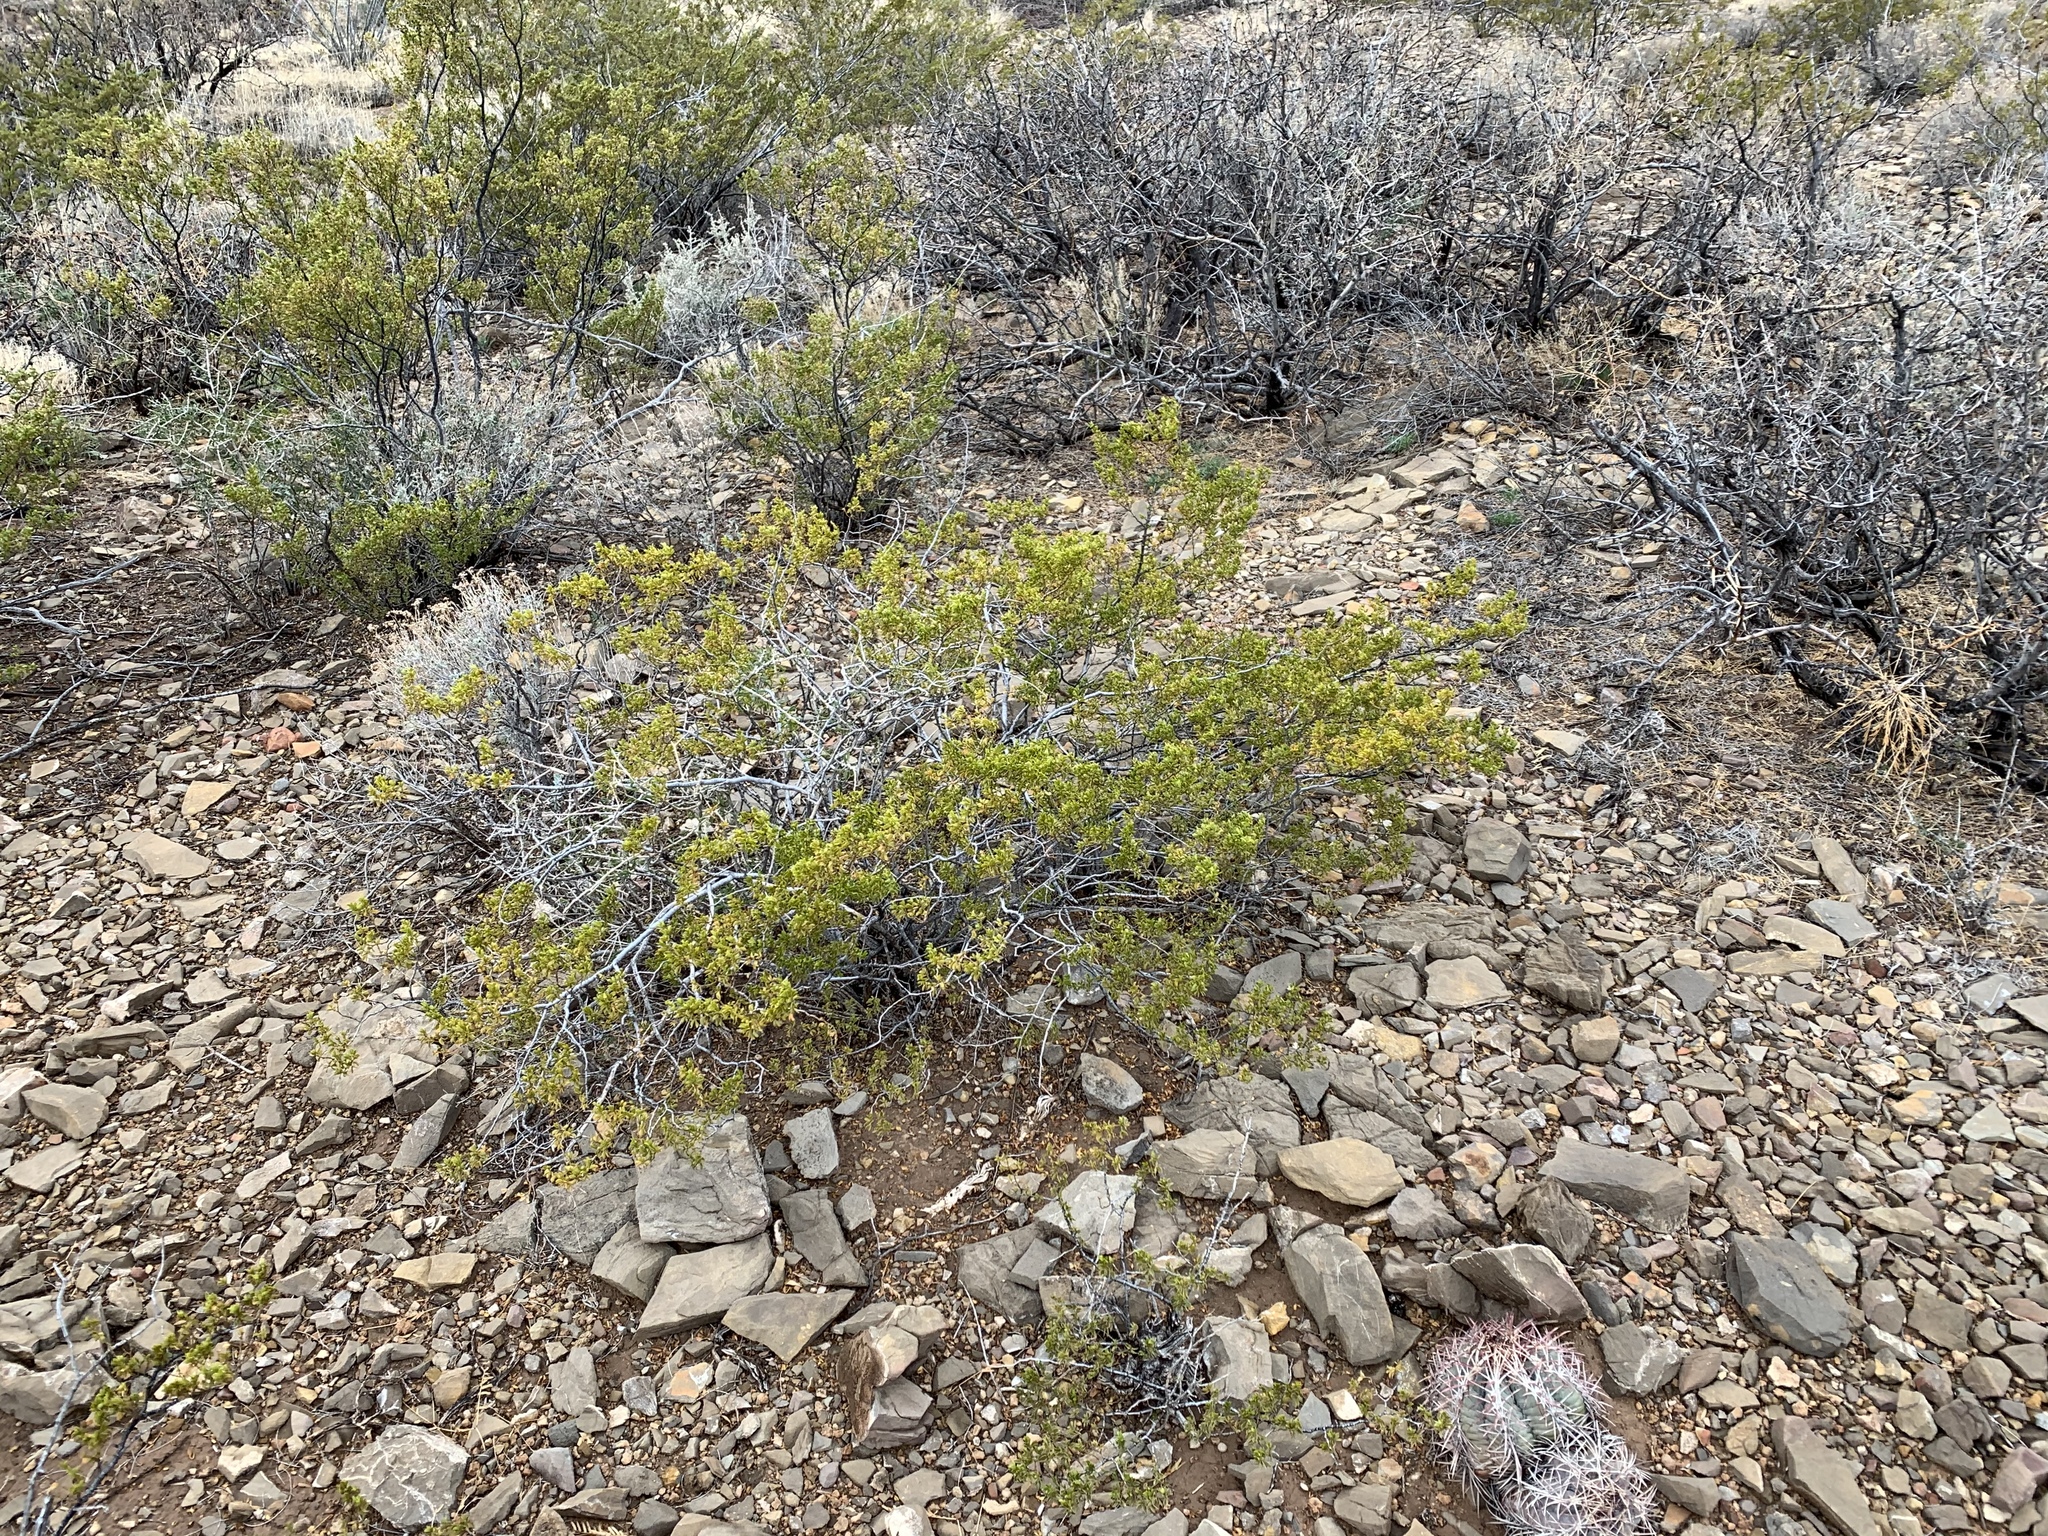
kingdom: Plantae
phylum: Tracheophyta
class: Magnoliopsida
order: Zygophyllales
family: Zygophyllaceae
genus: Larrea
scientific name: Larrea tridentata
